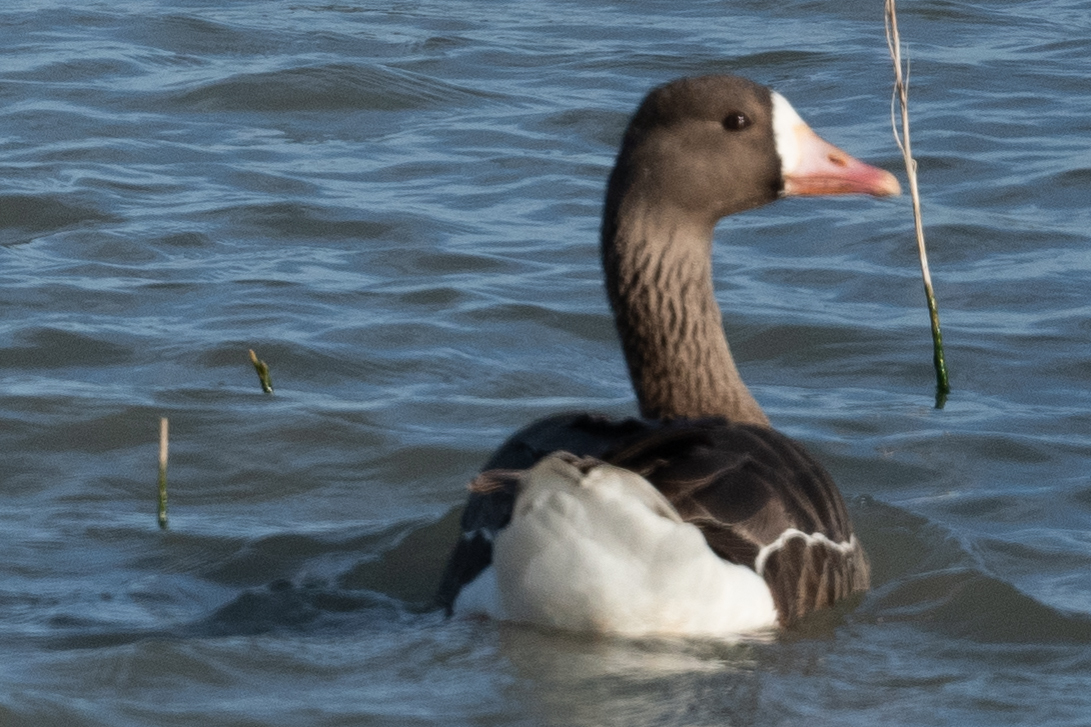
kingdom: Animalia
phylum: Chordata
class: Aves
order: Anseriformes
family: Anatidae
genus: Anser
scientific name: Anser albifrons
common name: Greater white-fronted goose
